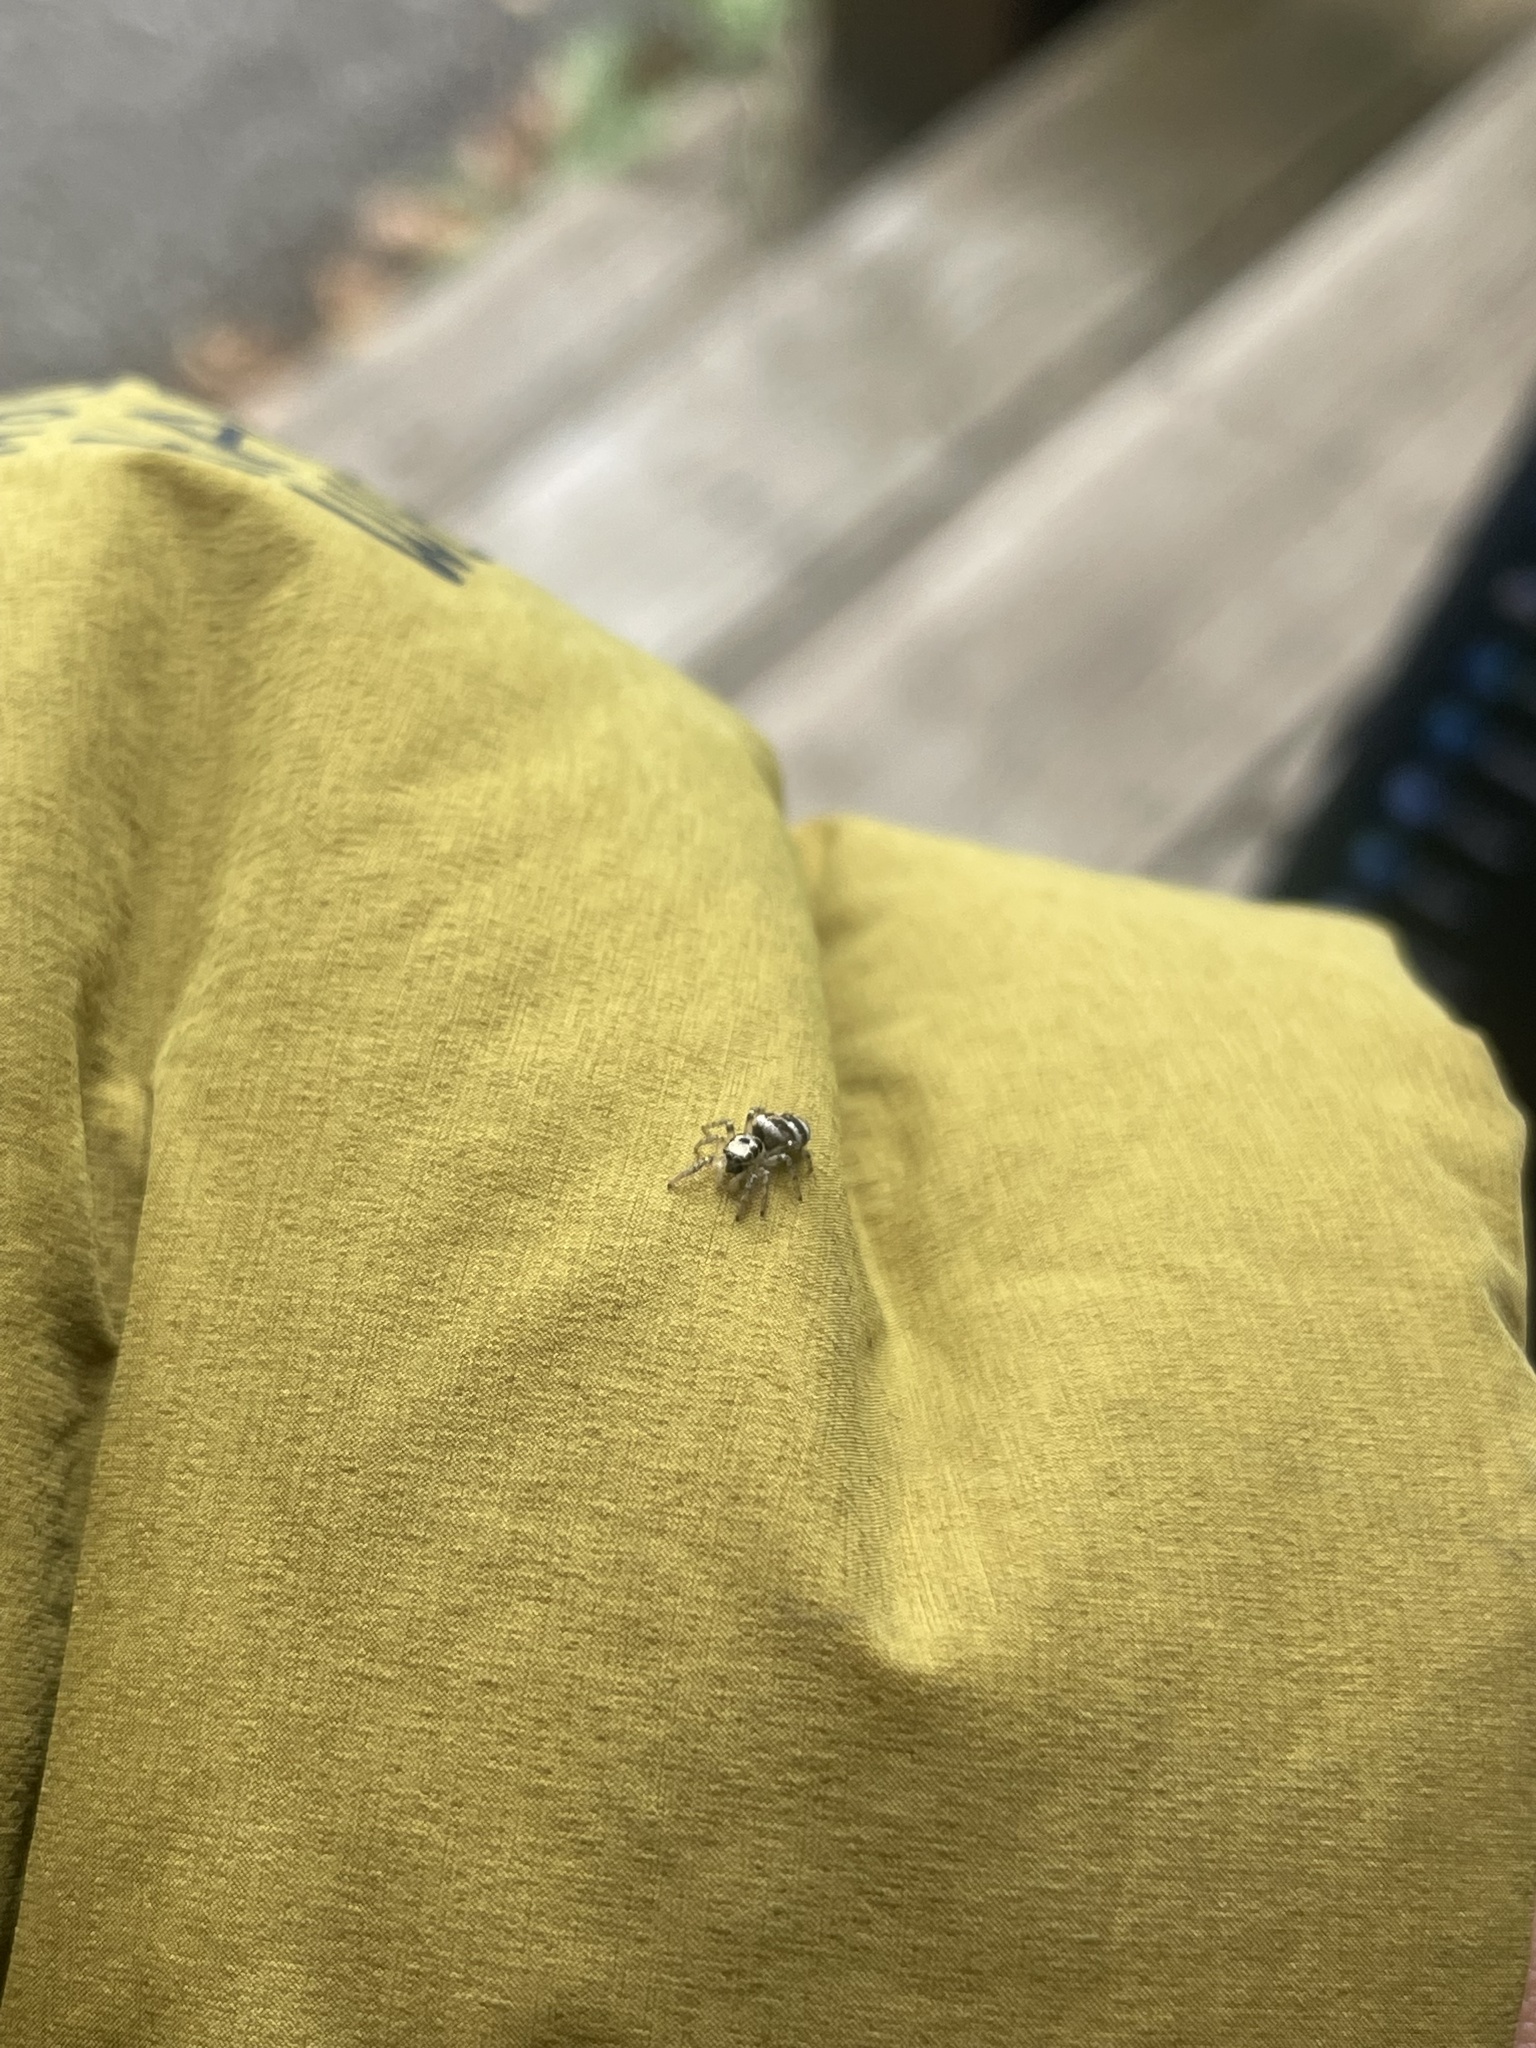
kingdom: Animalia
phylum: Arthropoda
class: Arachnida
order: Araneae
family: Salticidae
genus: Salticus
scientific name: Salticus scenicus
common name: Zebra jumper
